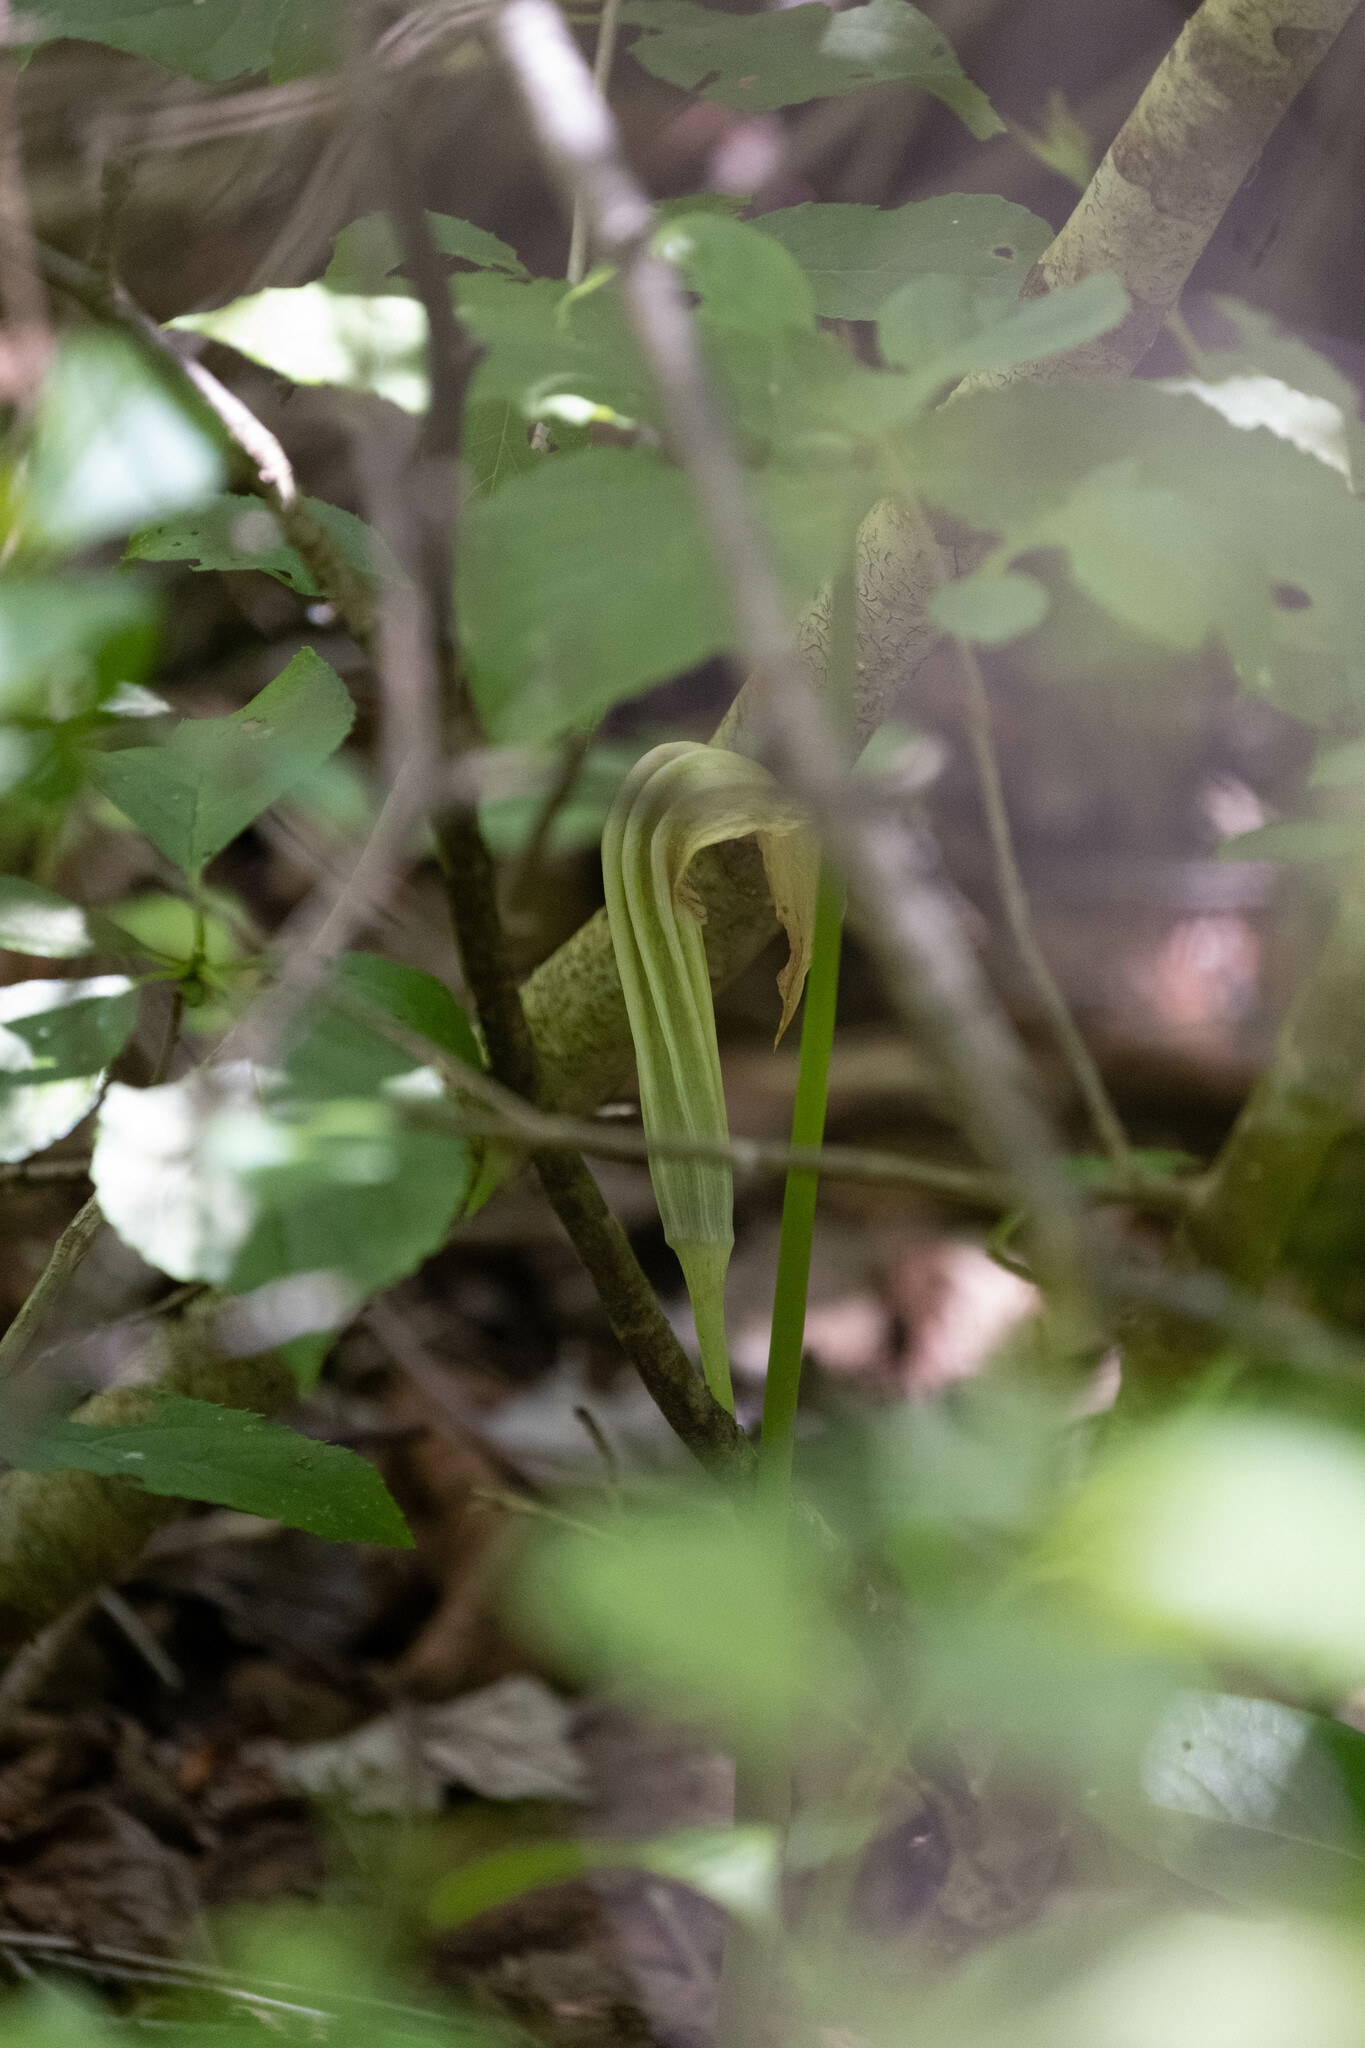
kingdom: Plantae
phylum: Tracheophyta
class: Liliopsida
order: Alismatales
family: Araceae
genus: Arisaema
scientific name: Arisaema stewardsonii
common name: Swamp jack-in-the-pulpit
